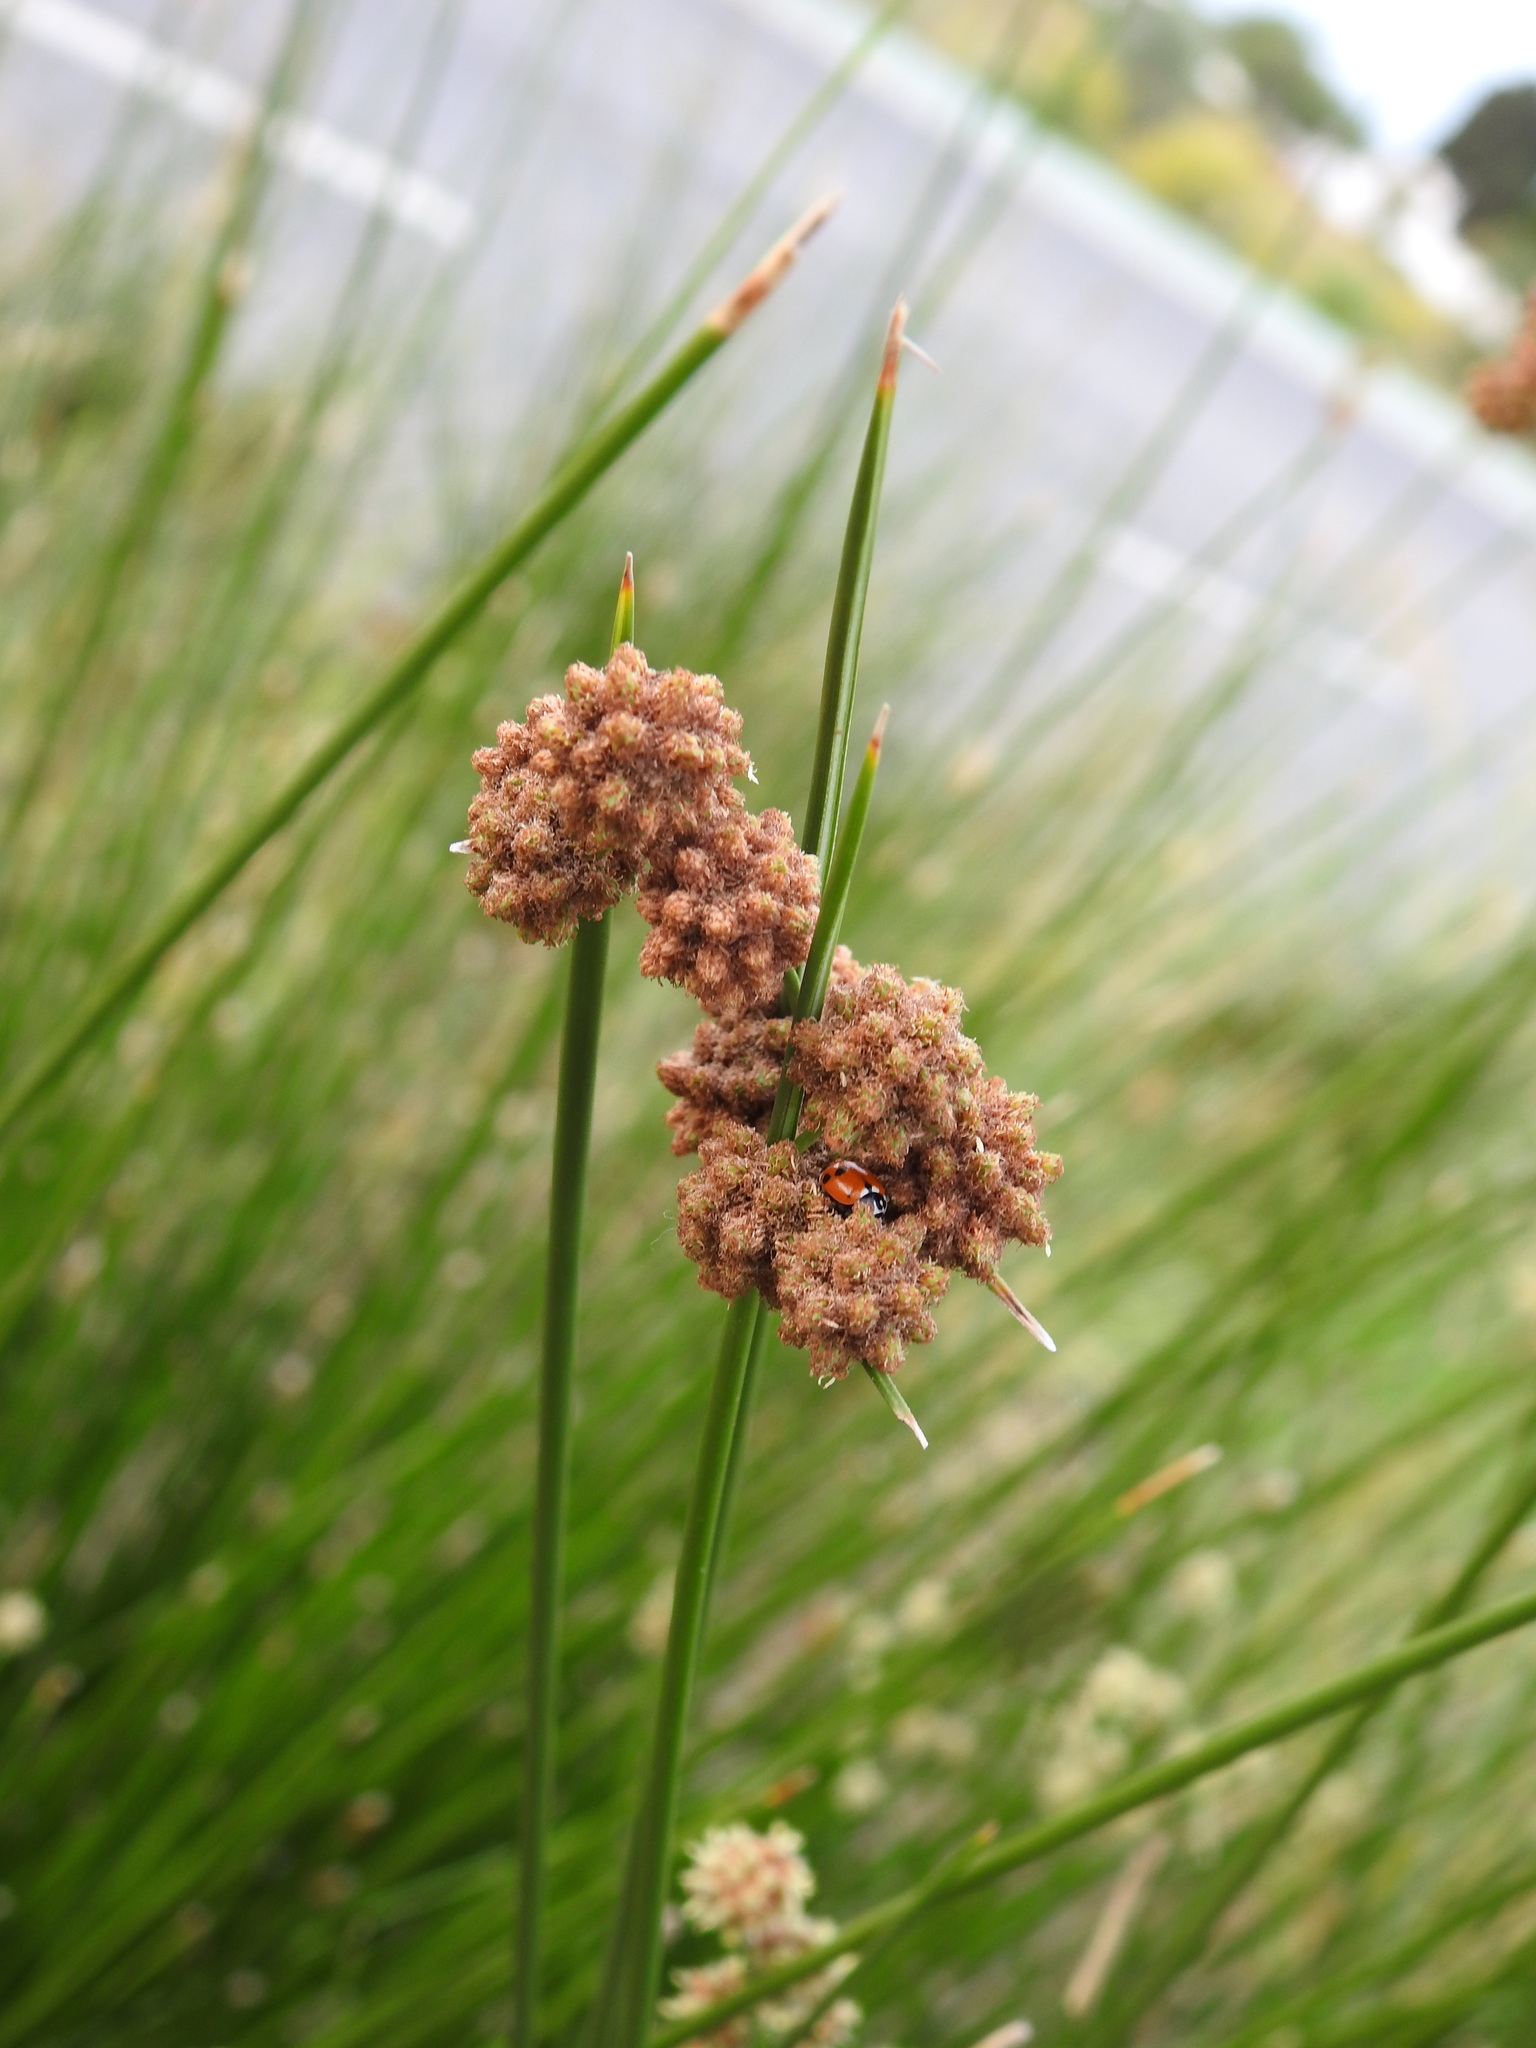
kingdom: Plantae
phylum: Tracheophyta
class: Liliopsida
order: Poales
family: Cyperaceae
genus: Scirpoides
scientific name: Scirpoides holoschoenus
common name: Round-headed club-rush
